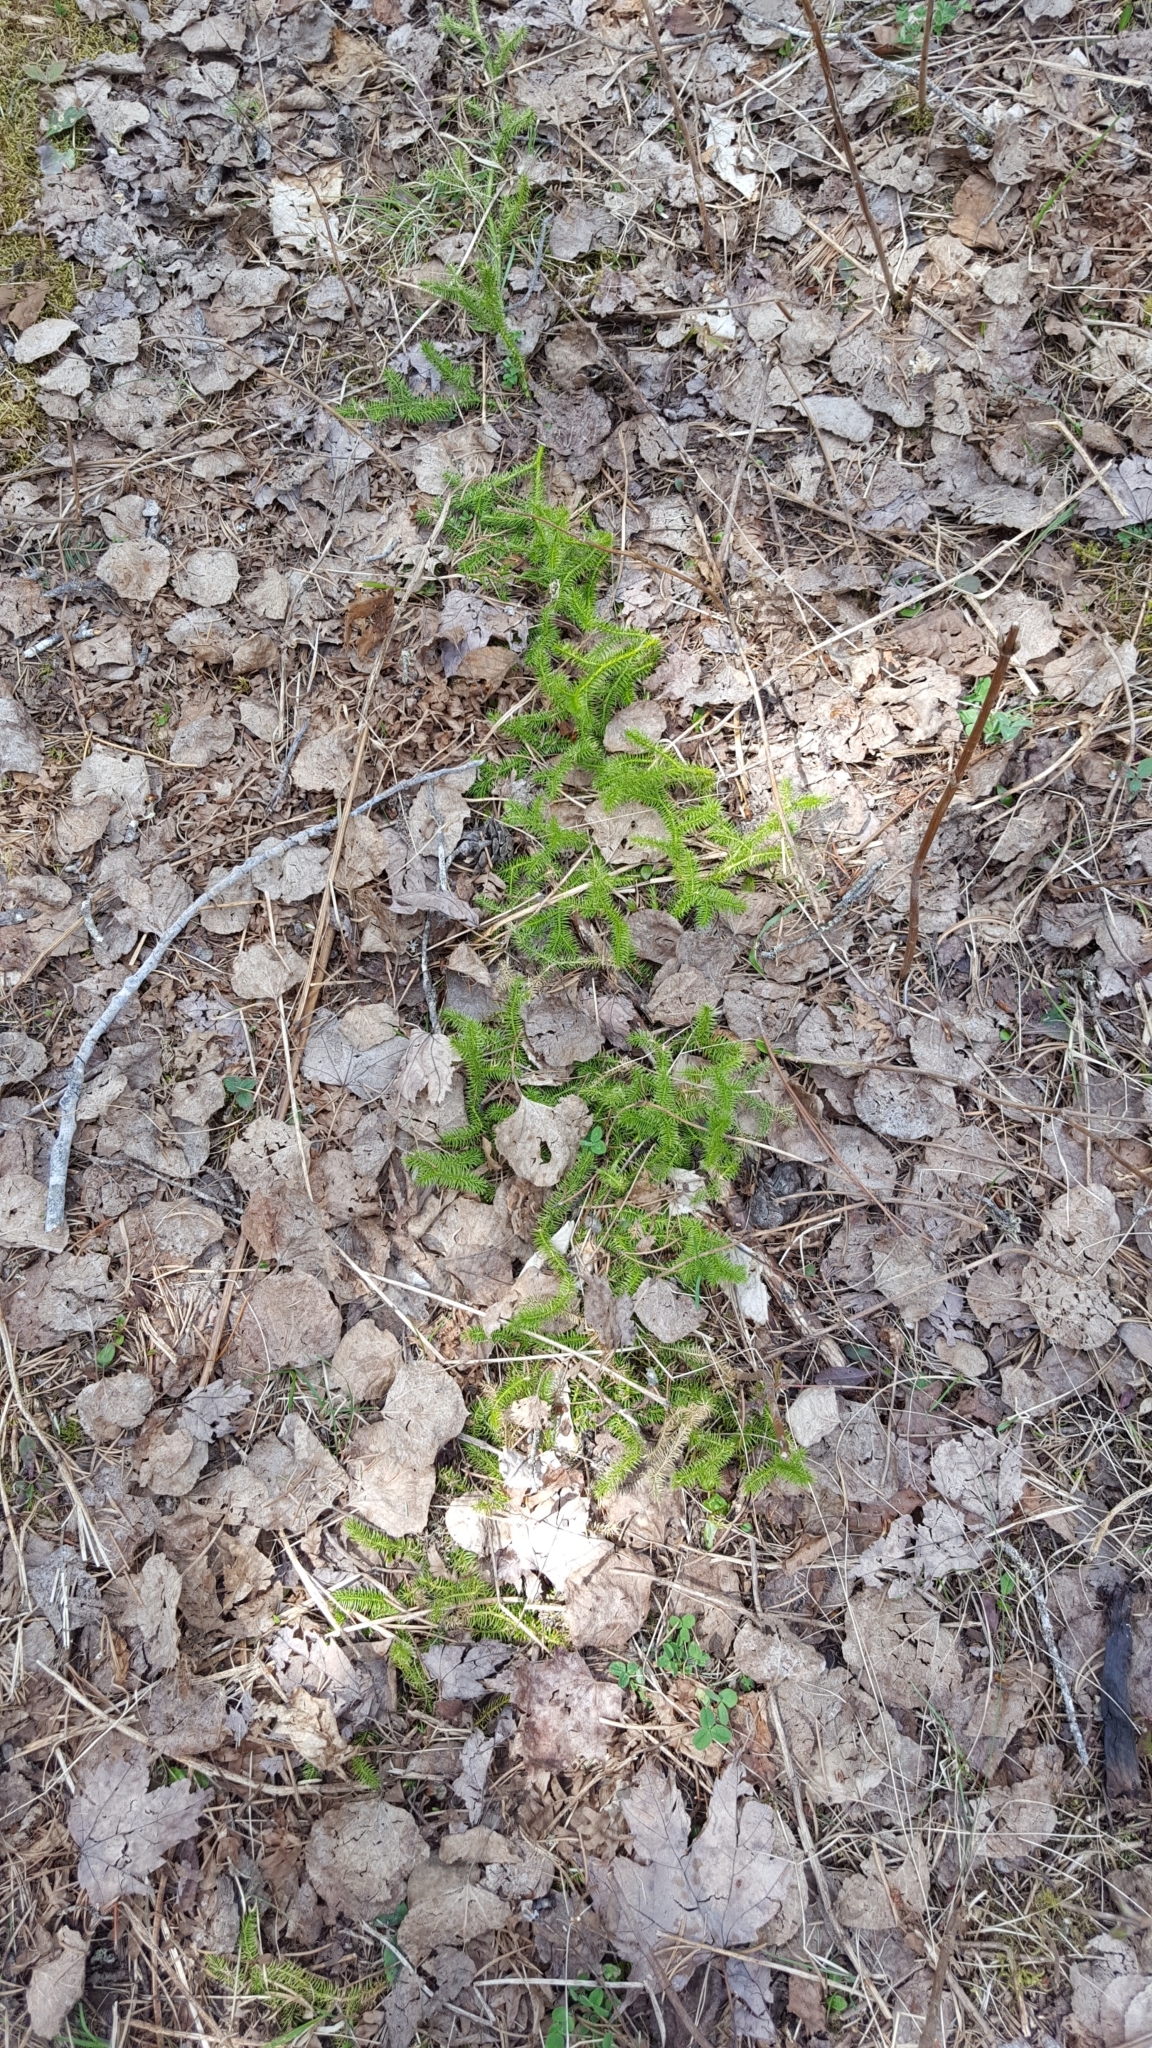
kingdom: Plantae
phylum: Tracheophyta
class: Lycopodiopsida
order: Lycopodiales
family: Lycopodiaceae
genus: Lycopodium
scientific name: Lycopodium clavatum
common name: Stag's-horn clubmoss
